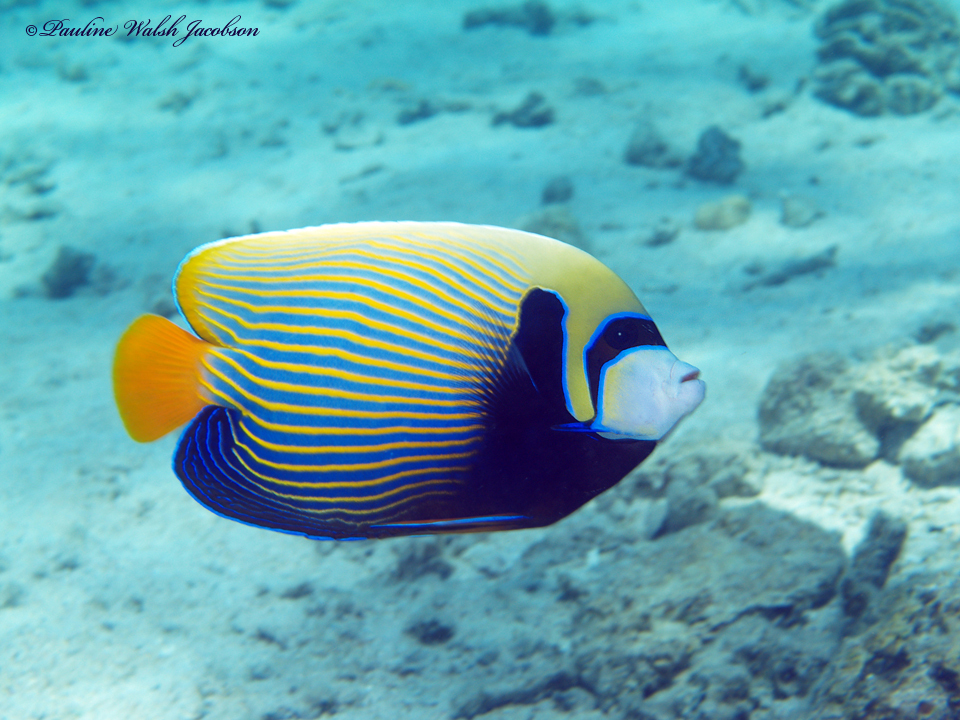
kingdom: Animalia
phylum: Chordata
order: Perciformes
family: Pomacanthidae
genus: Pomacanthus
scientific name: Pomacanthus imperator
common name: Emperor angelfish
